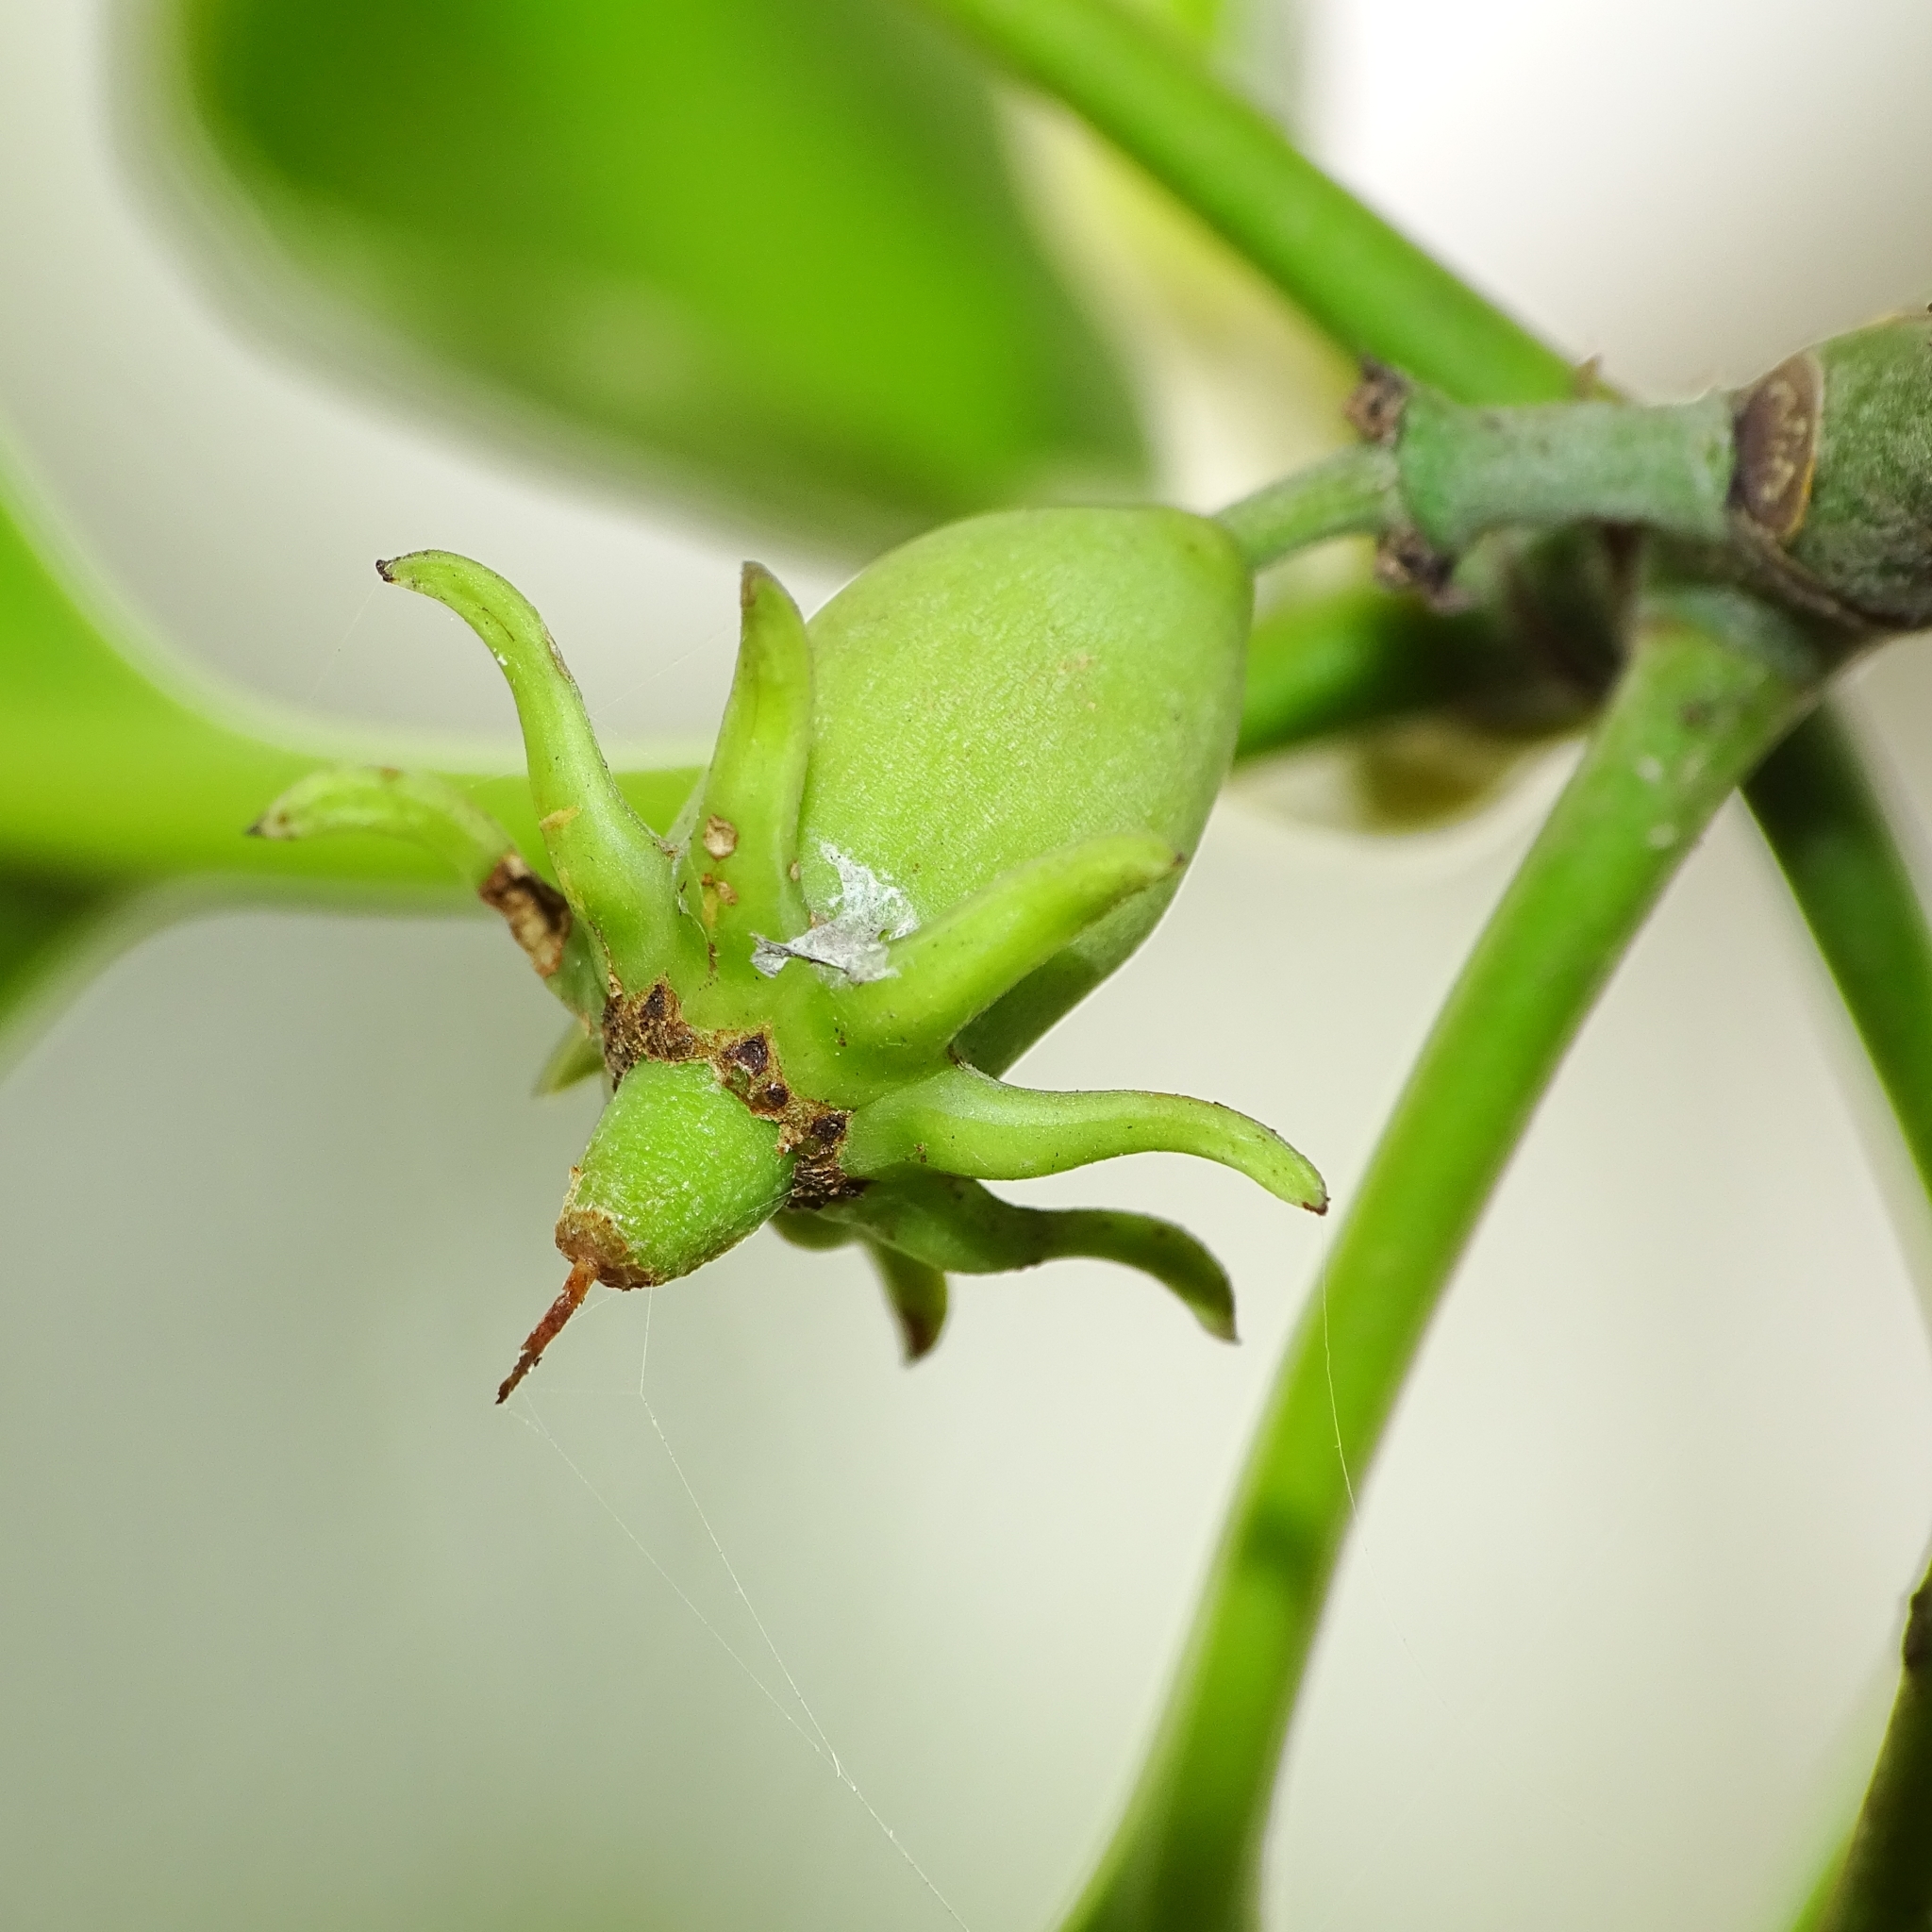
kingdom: Plantae
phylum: Tracheophyta
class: Magnoliopsida
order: Malpighiales
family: Rhizophoraceae
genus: Bruguiera
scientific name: Bruguiera cylindrica
